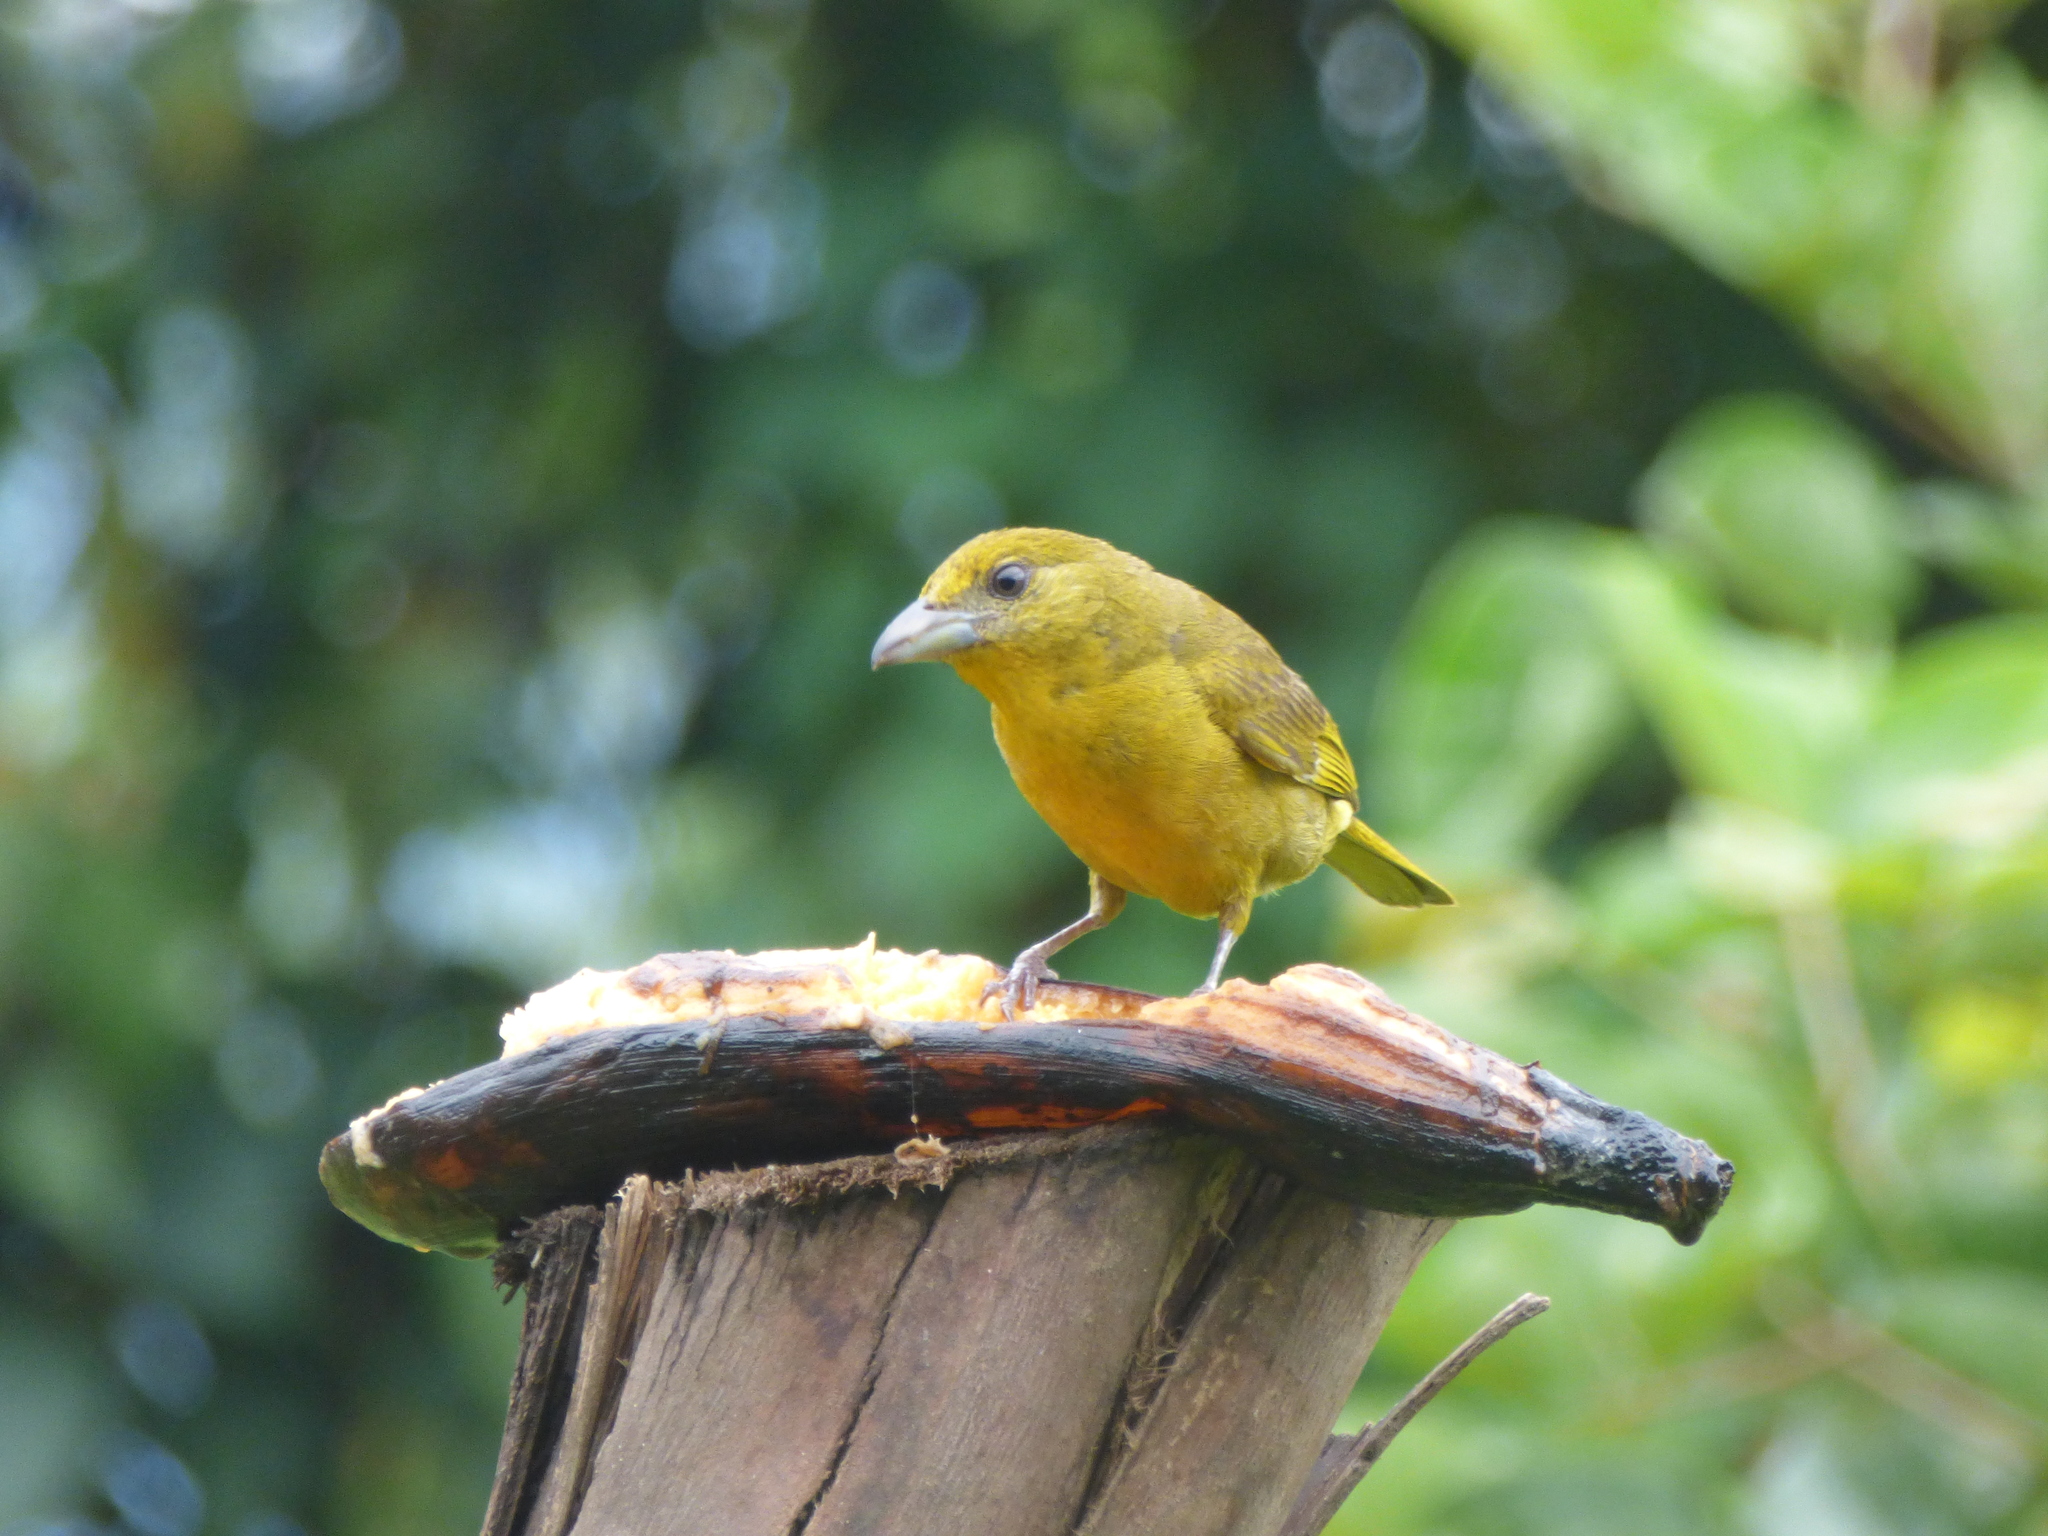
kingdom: Animalia
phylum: Chordata
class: Aves
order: Passeriformes
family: Cardinalidae
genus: Piranga
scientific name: Piranga flava
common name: Red tanager
